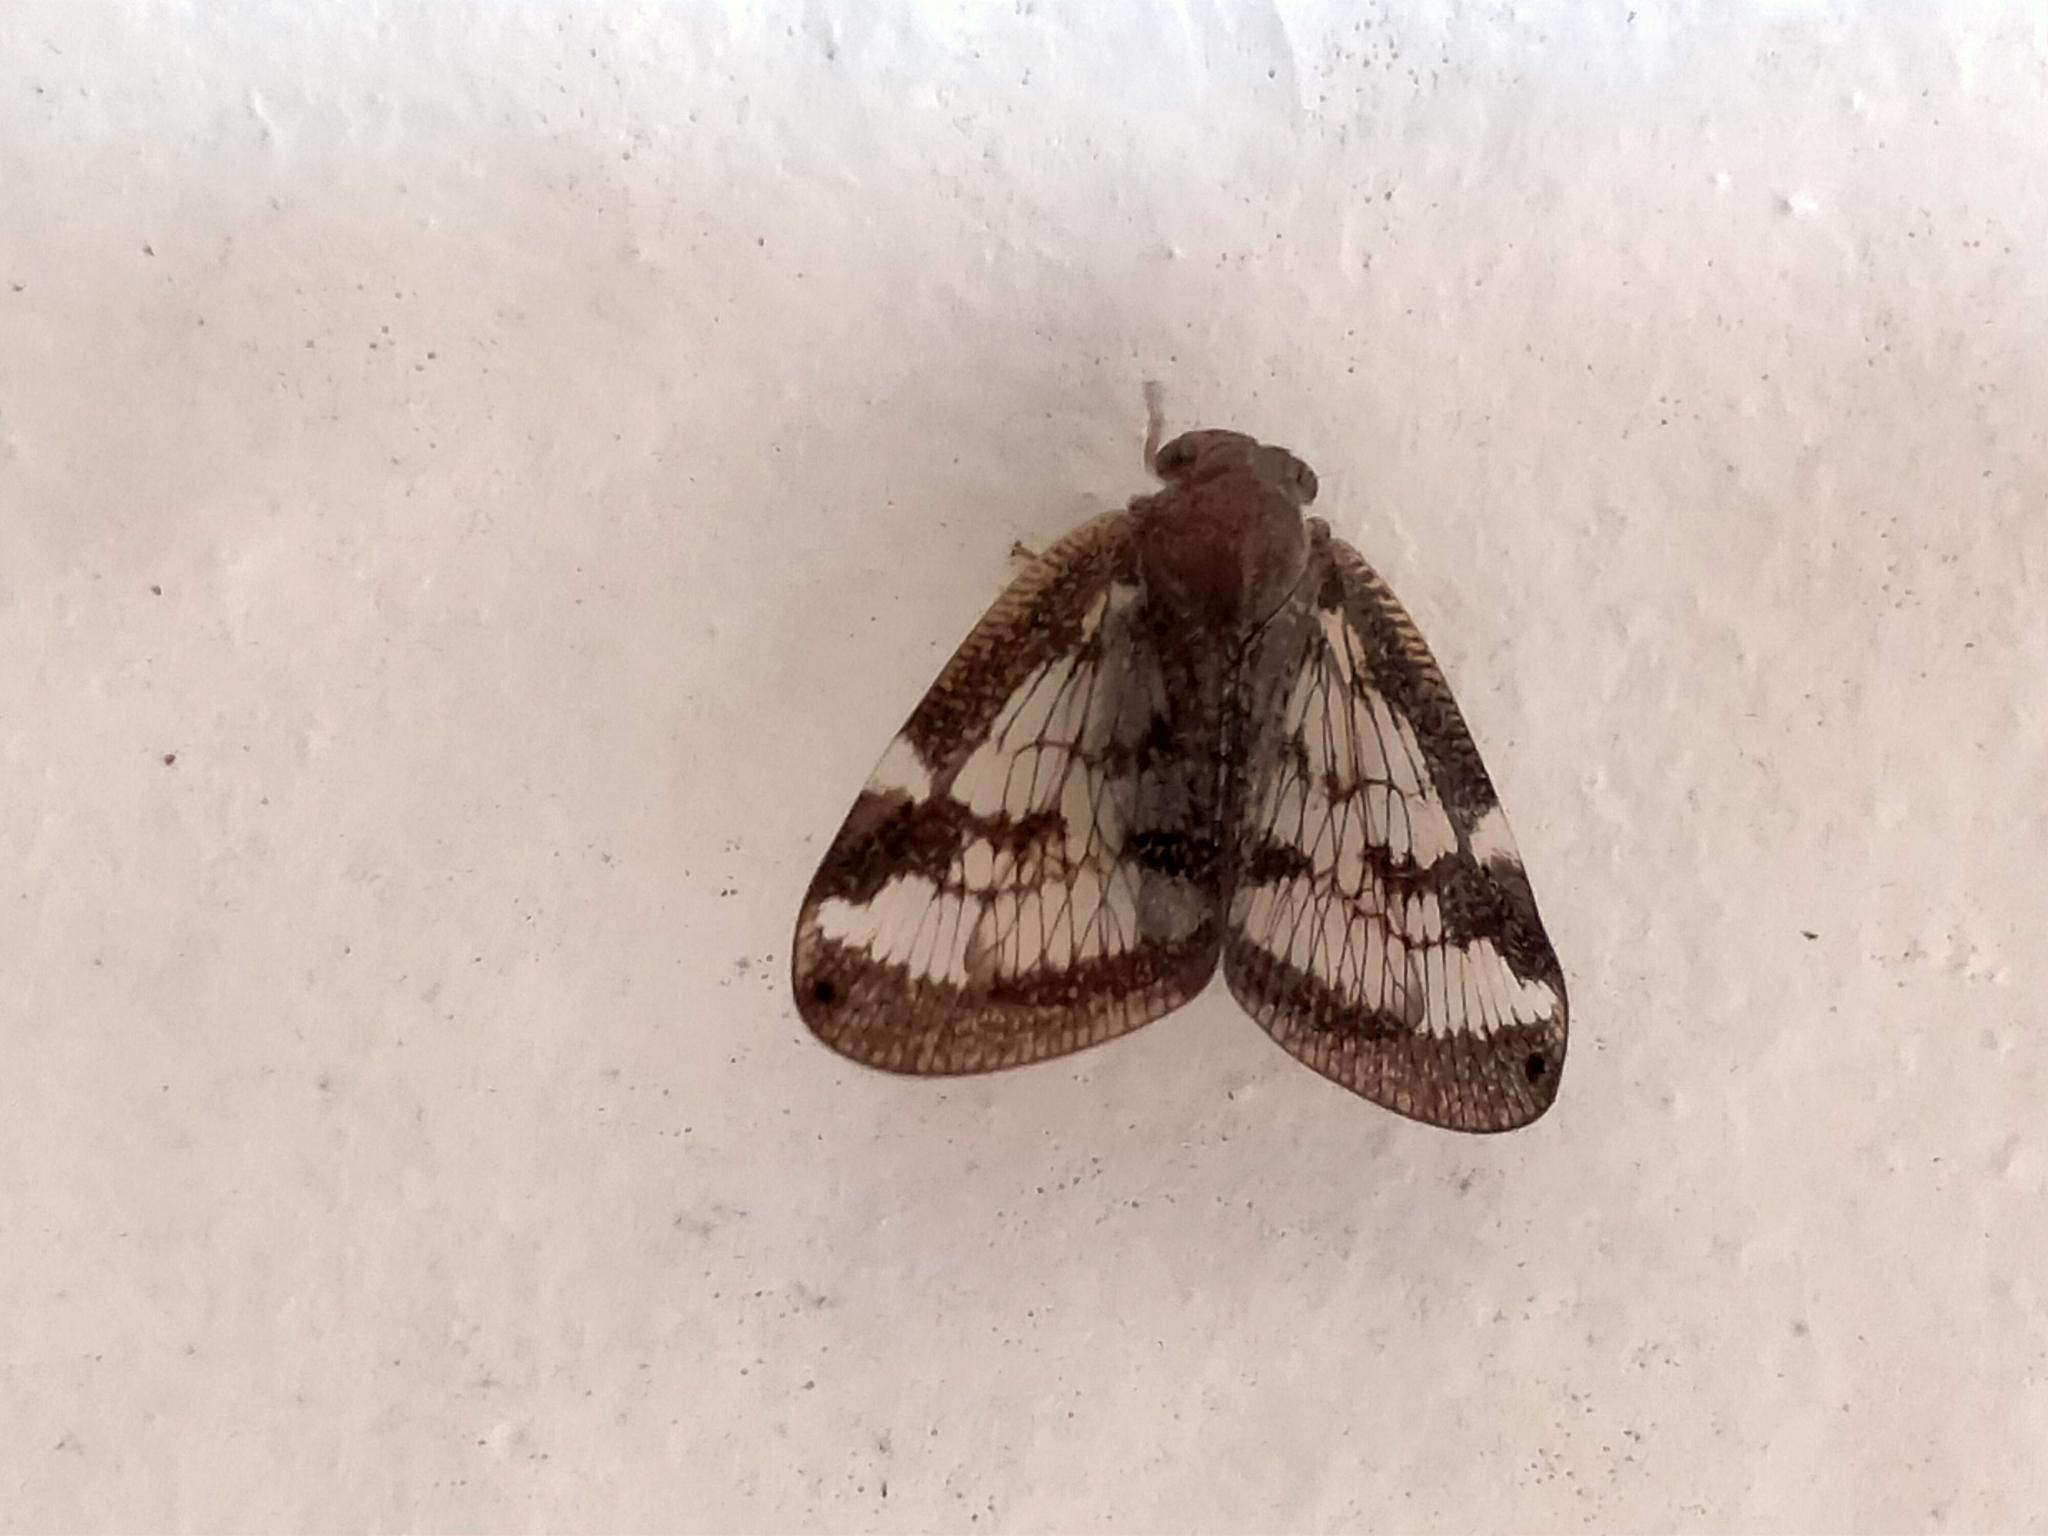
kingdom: Animalia
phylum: Arthropoda
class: Insecta
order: Hemiptera
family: Ricaniidae
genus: Scolypopa
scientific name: Scolypopa australis
